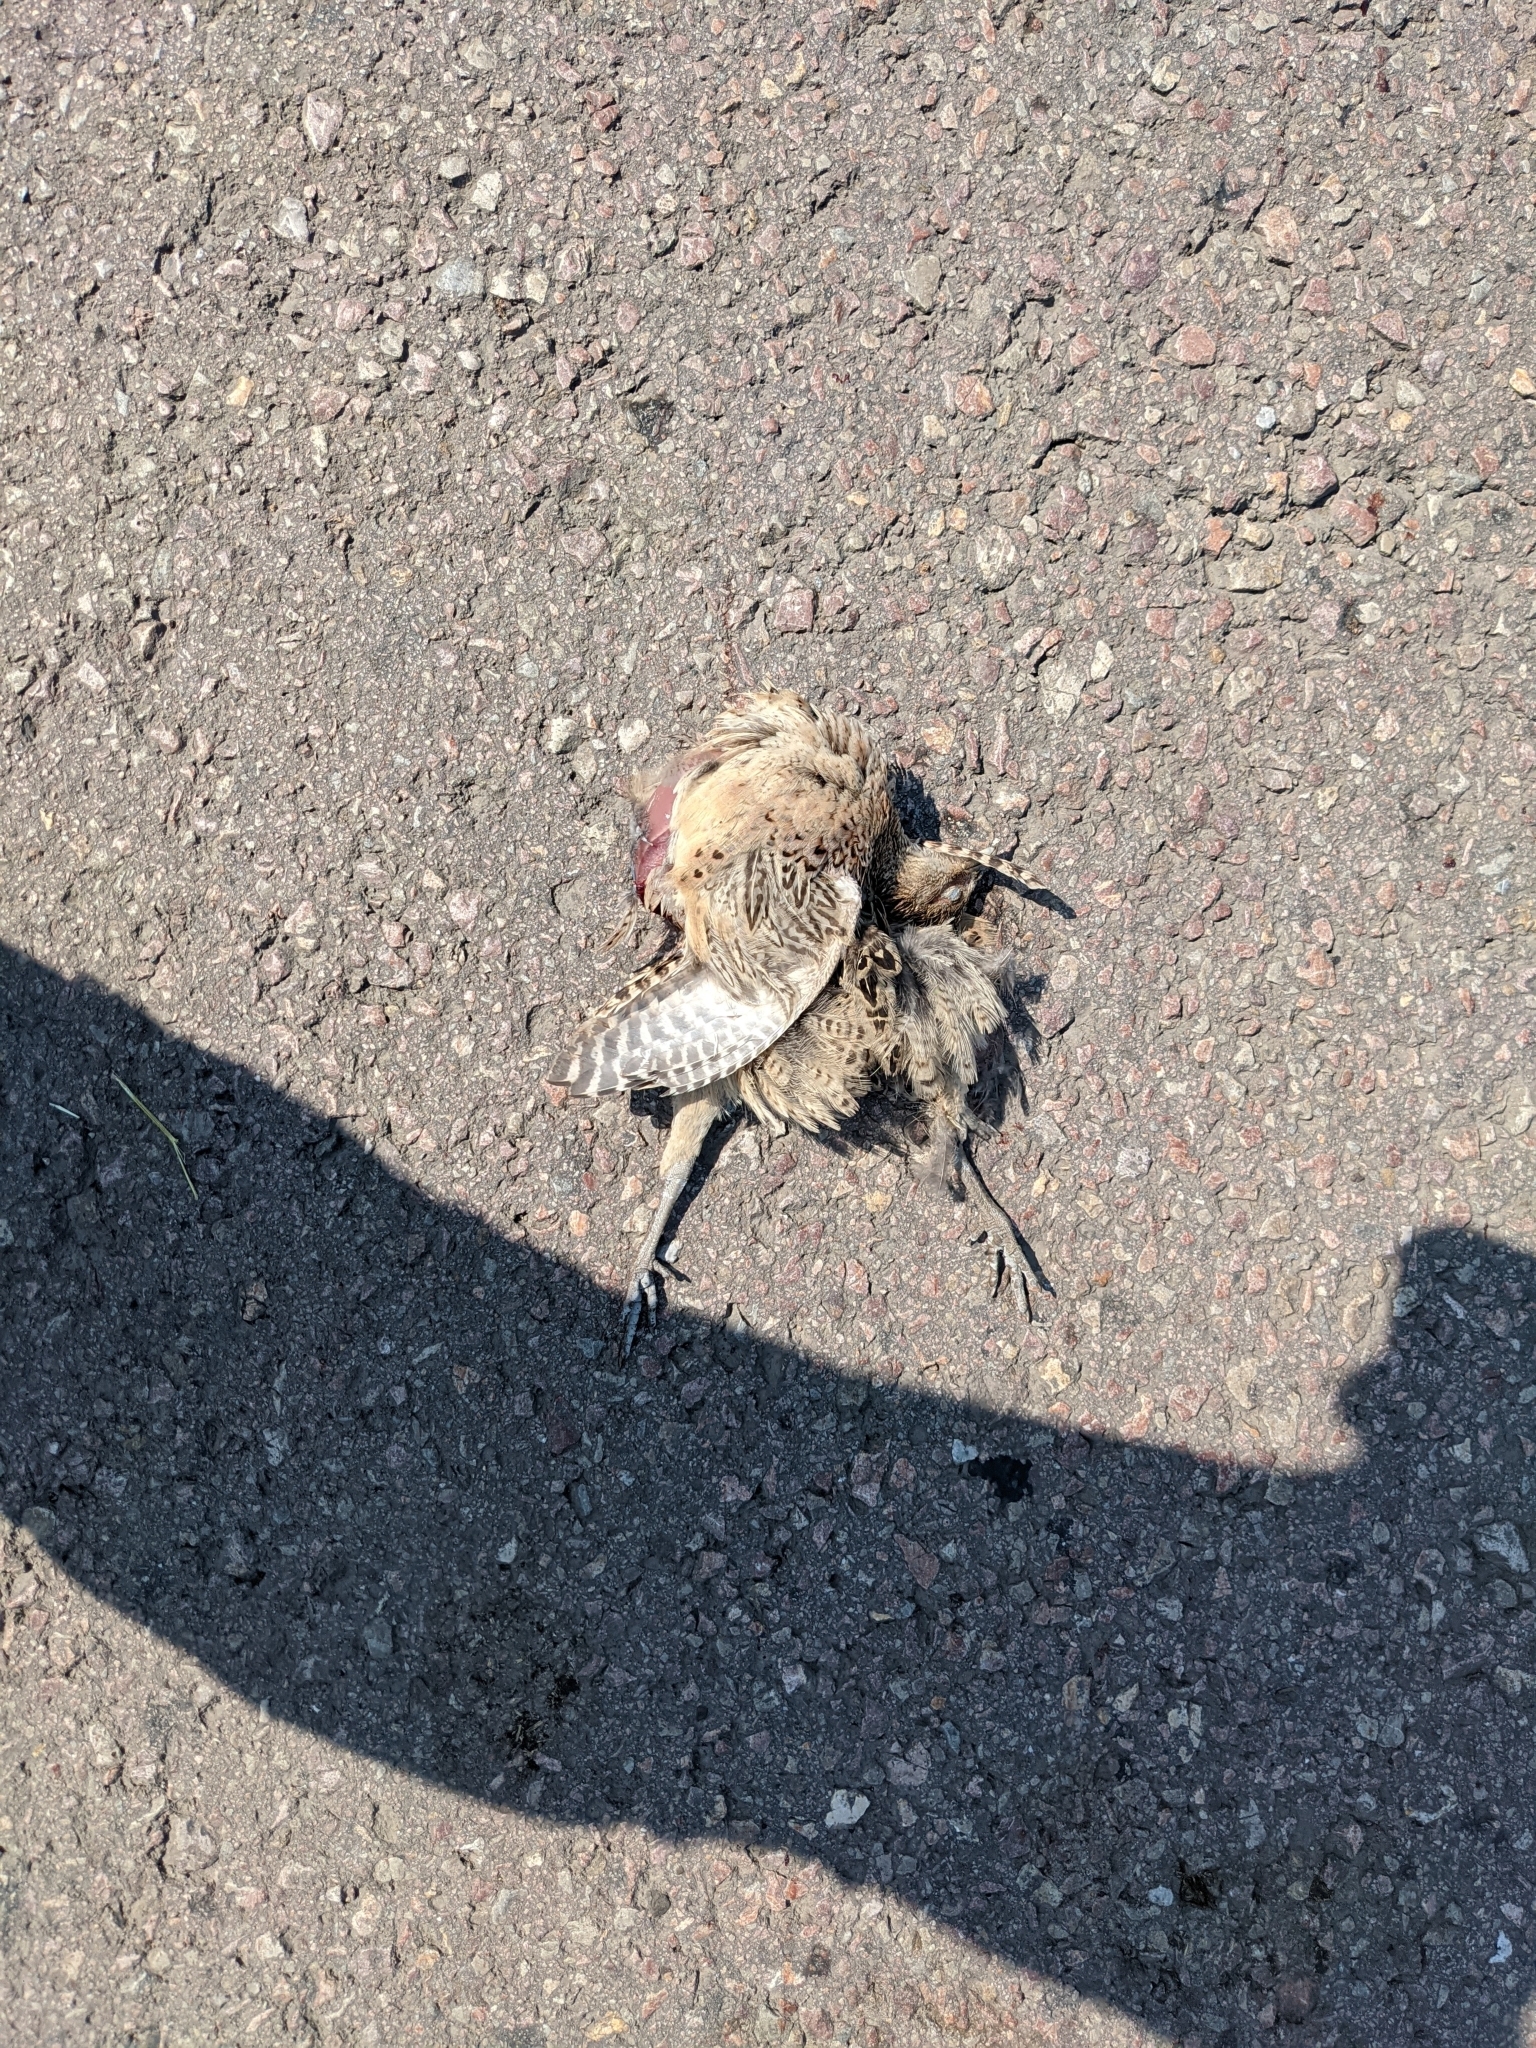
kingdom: Animalia
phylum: Chordata
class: Aves
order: Galliformes
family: Phasianidae
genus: Phasianus
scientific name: Phasianus colchicus
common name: Common pheasant
